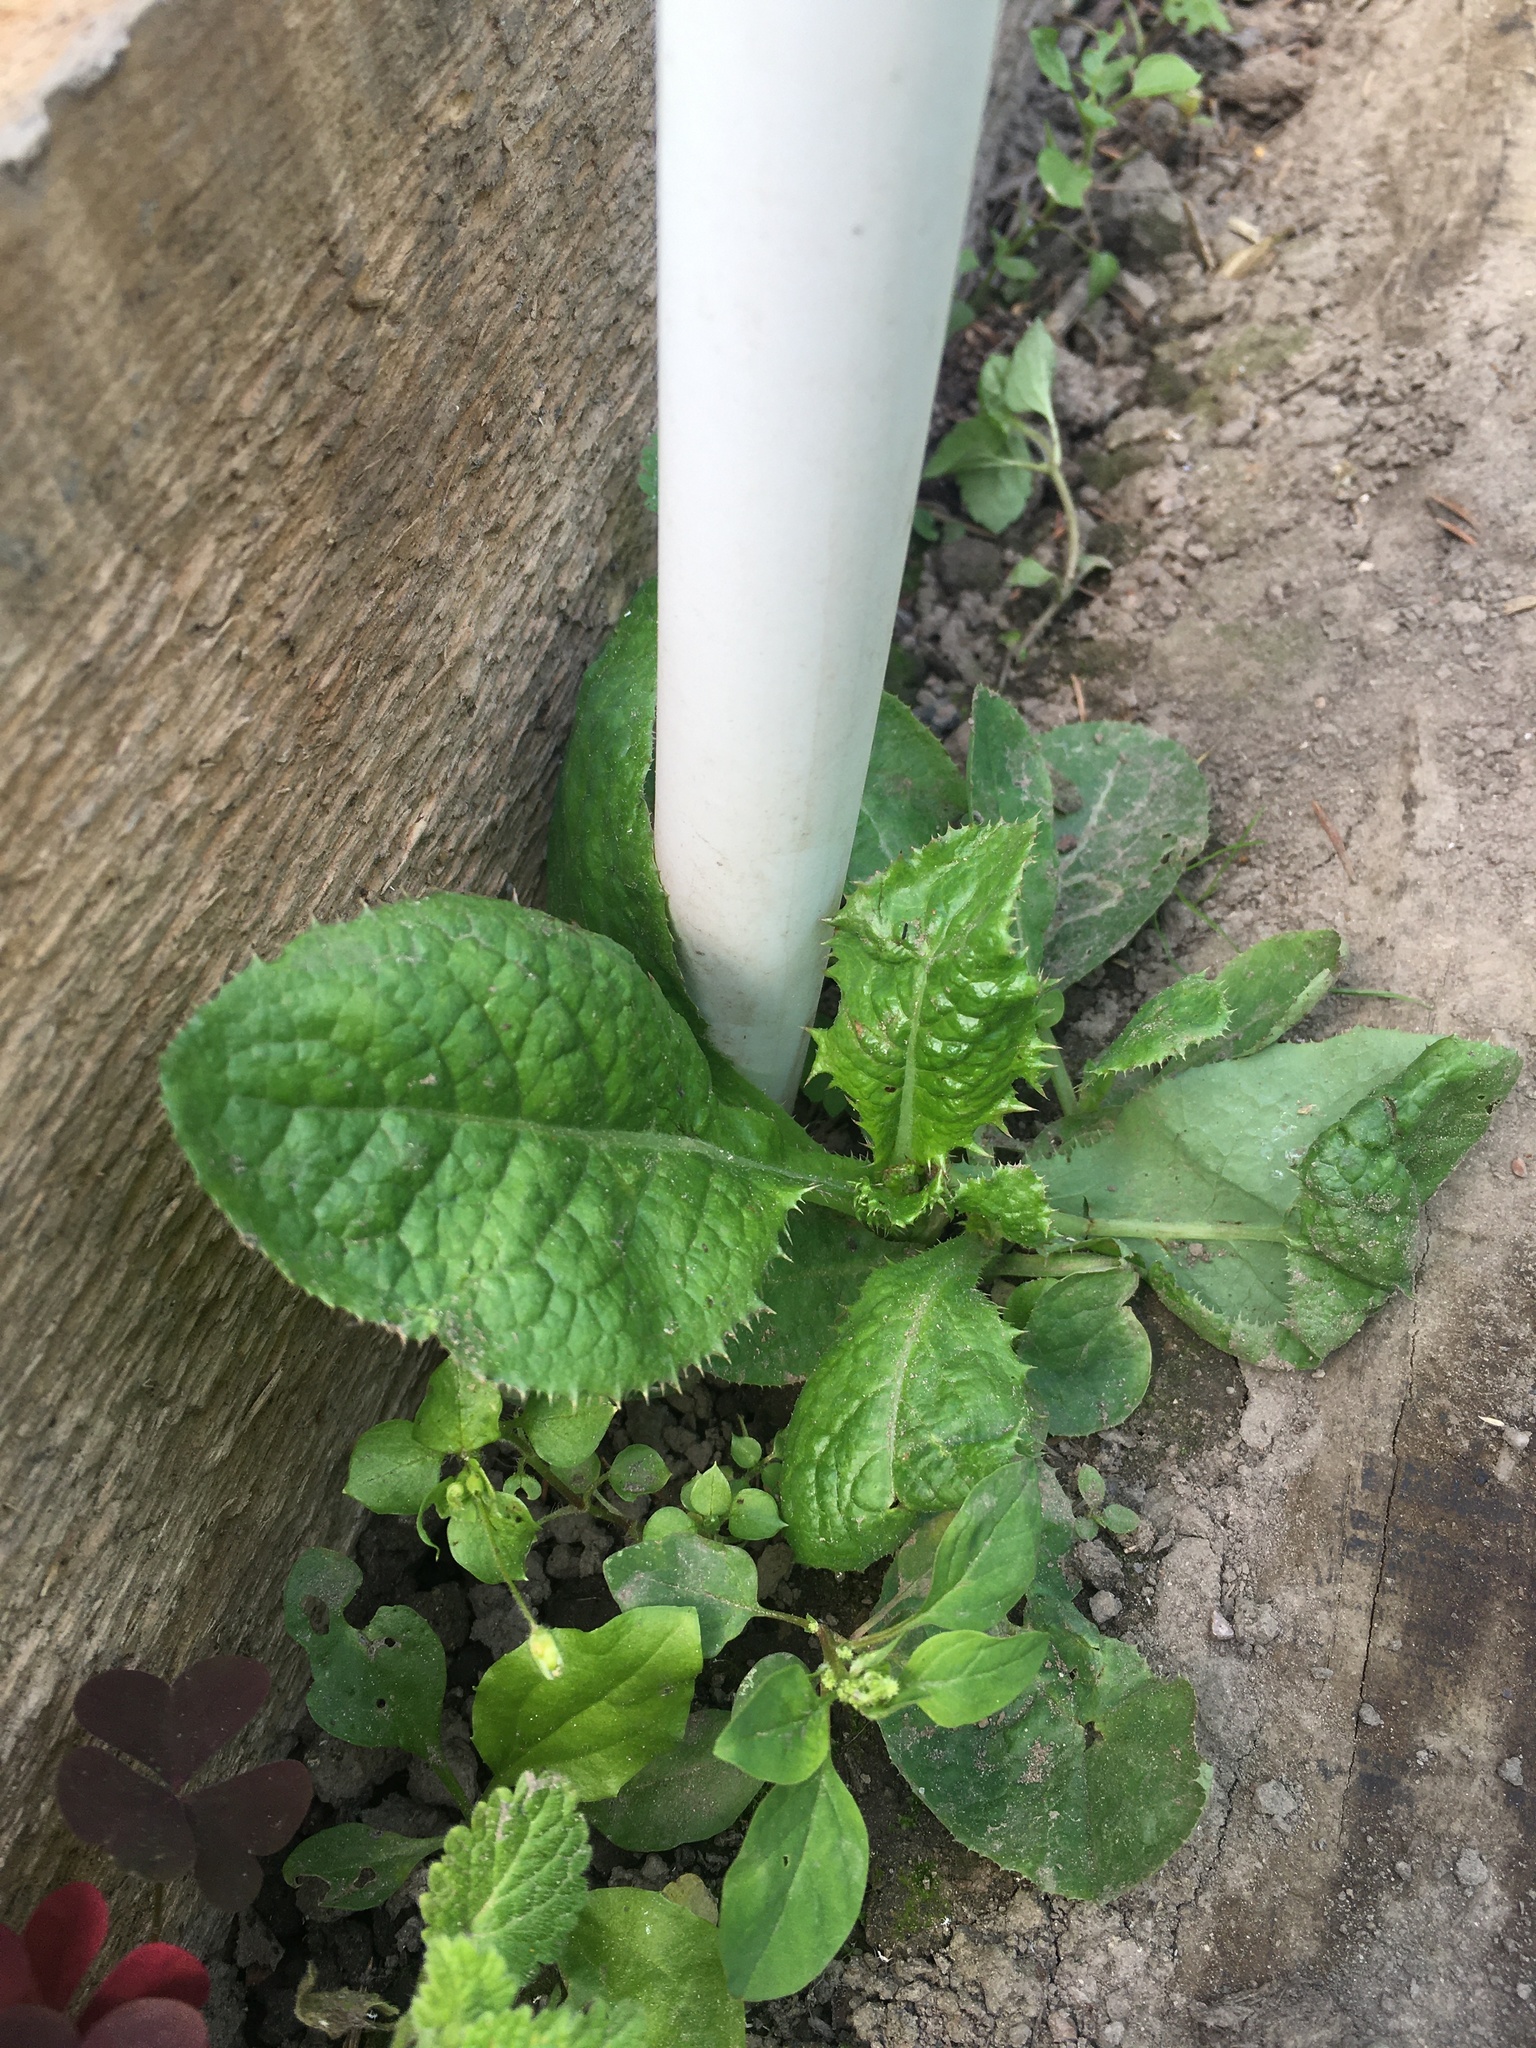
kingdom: Plantae
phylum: Tracheophyta
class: Magnoliopsida
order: Asterales
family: Asteraceae
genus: Sonchus
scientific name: Sonchus asper
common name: Prickly sow-thistle
